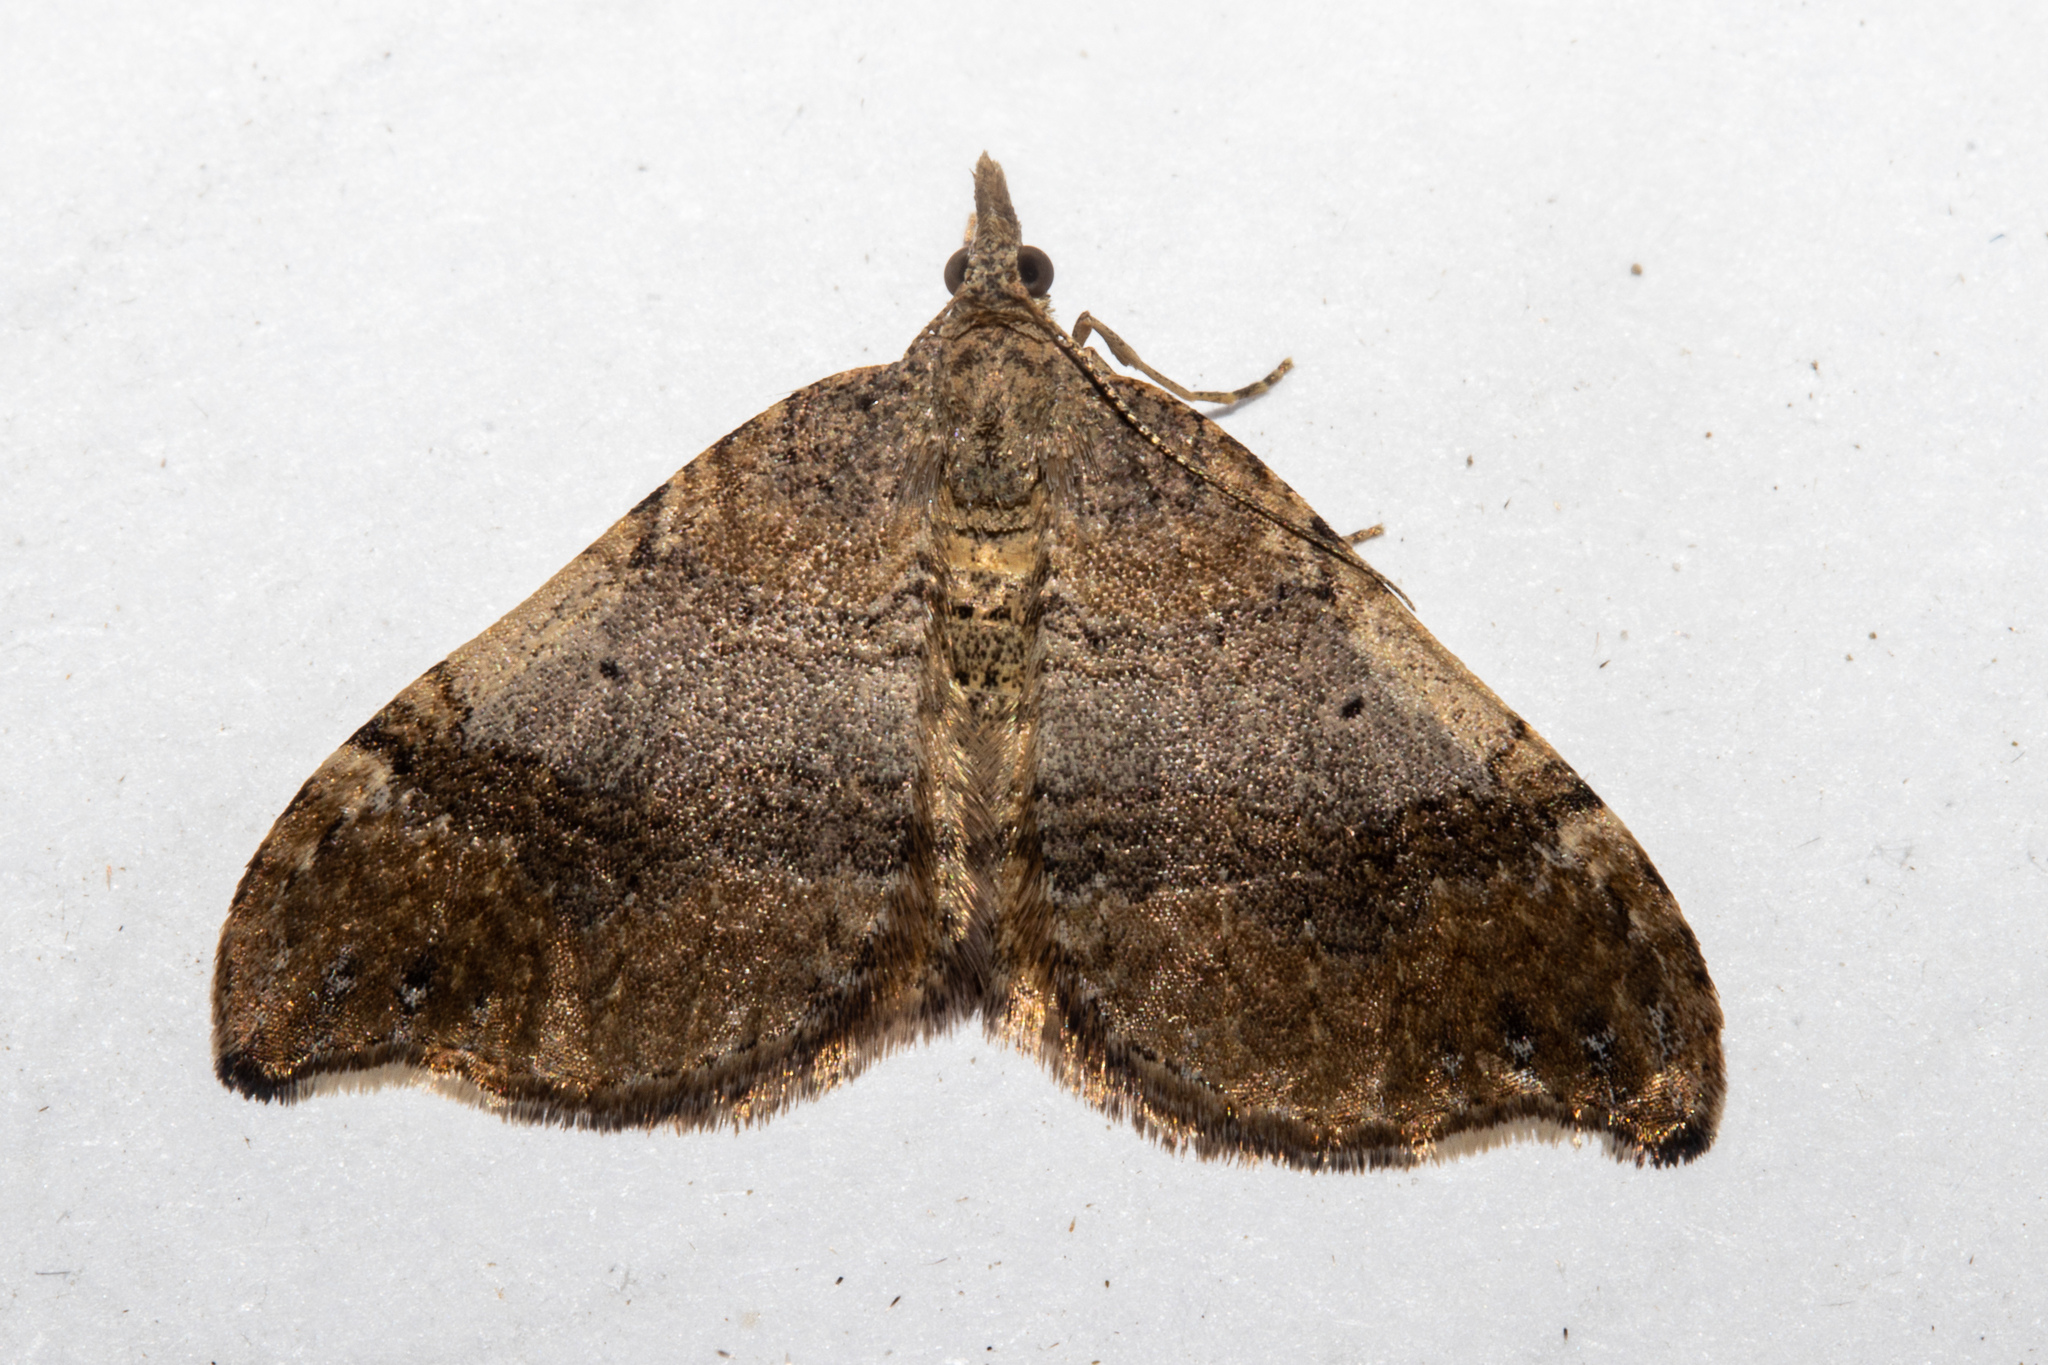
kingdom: Animalia
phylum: Arthropoda
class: Insecta
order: Lepidoptera
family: Geometridae
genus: Homodotis
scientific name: Homodotis megaspilata
